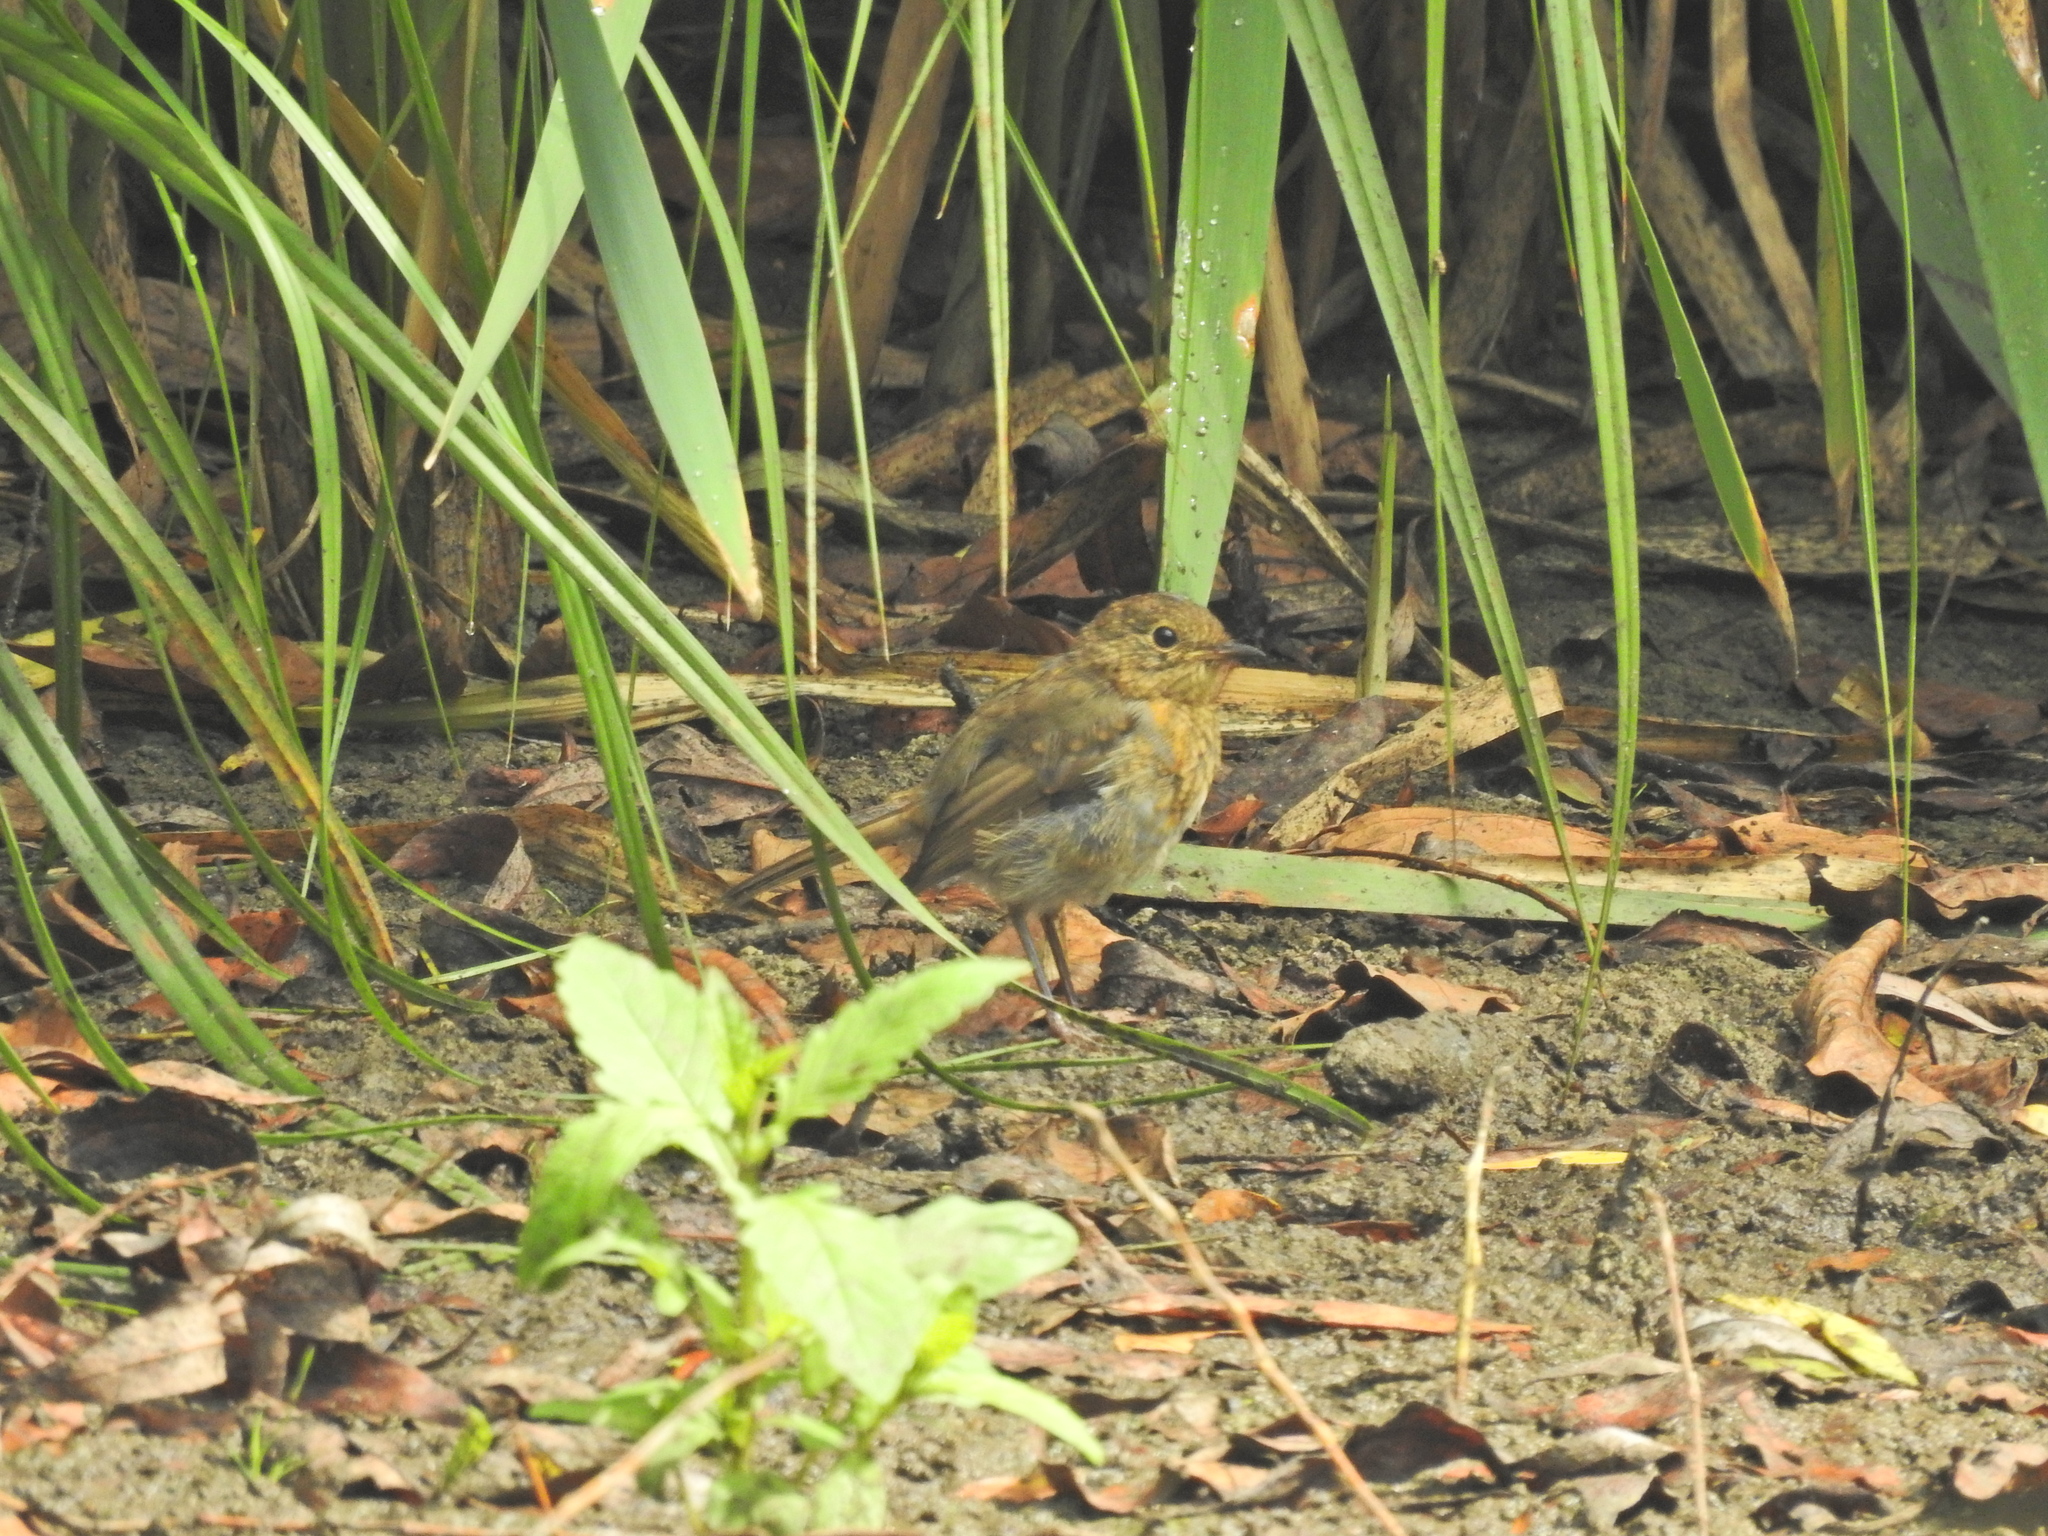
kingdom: Animalia
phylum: Chordata
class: Aves
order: Passeriformes
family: Muscicapidae
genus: Erithacus
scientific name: Erithacus rubecula
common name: European robin
